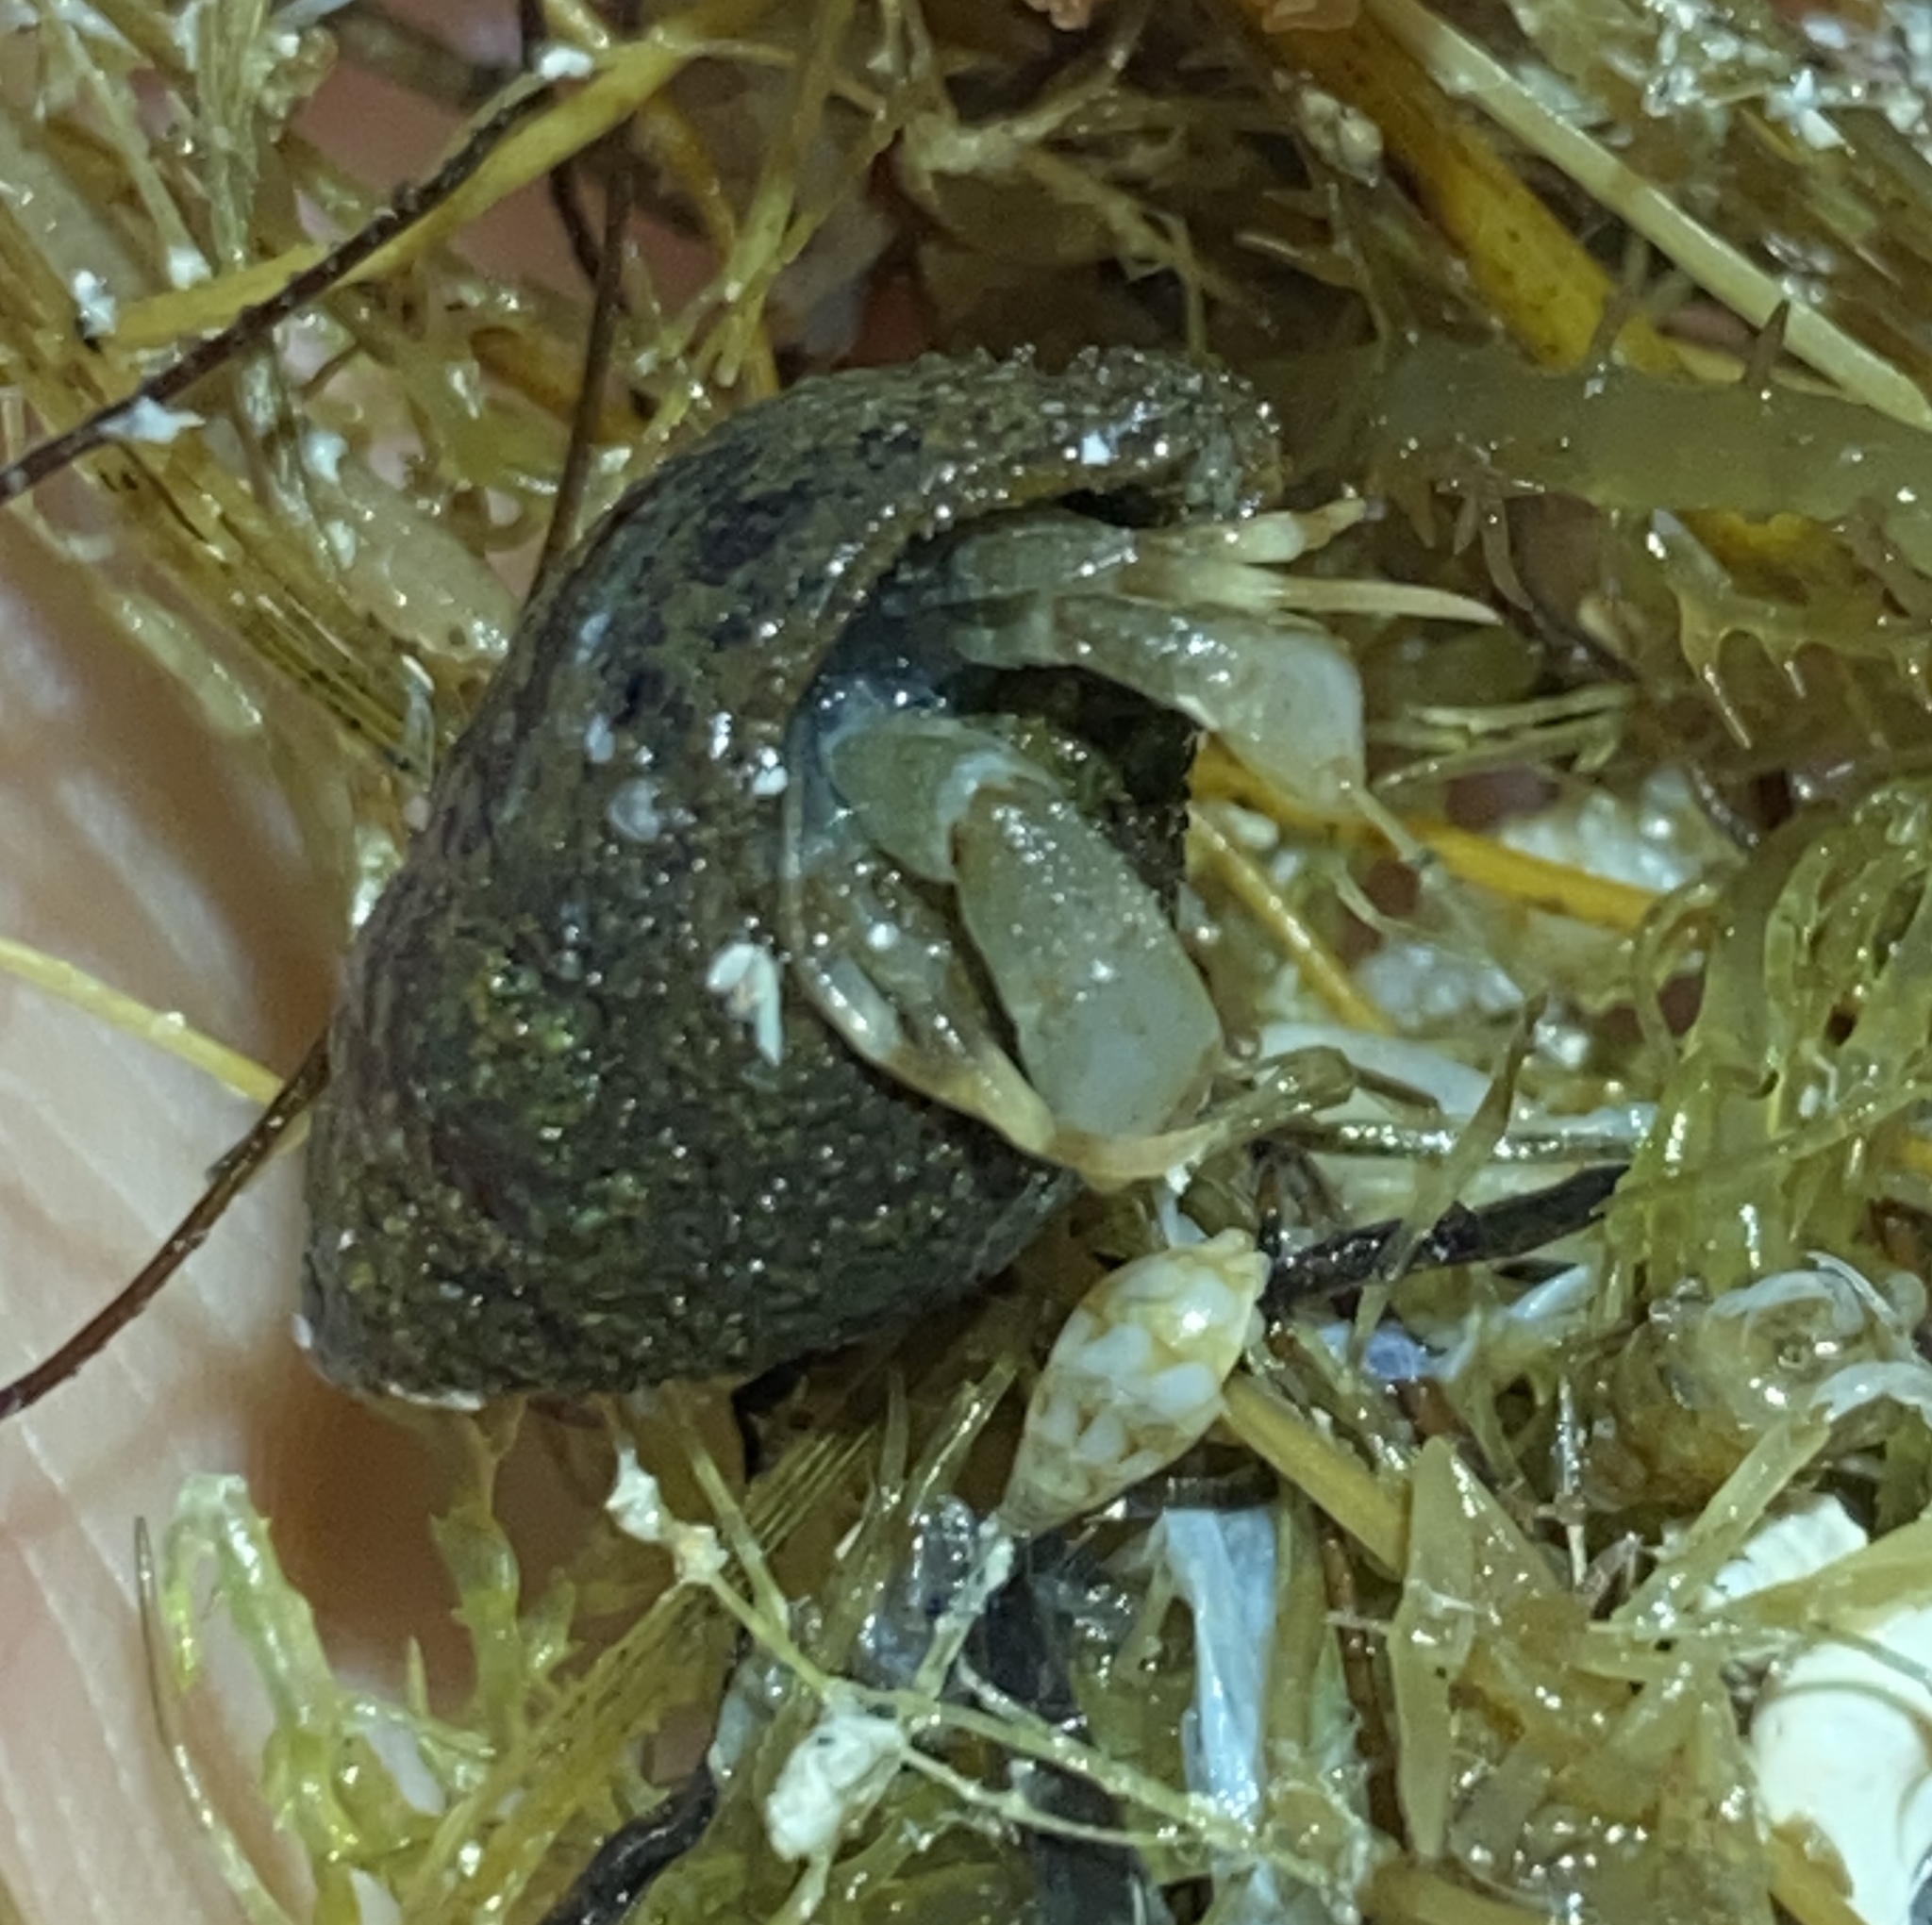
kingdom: Animalia
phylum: Arthropoda
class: Malacostraca
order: Decapoda
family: Paguridae
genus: Pagurus
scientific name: Pagurus pollicaris
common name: Flatclaw hermit
